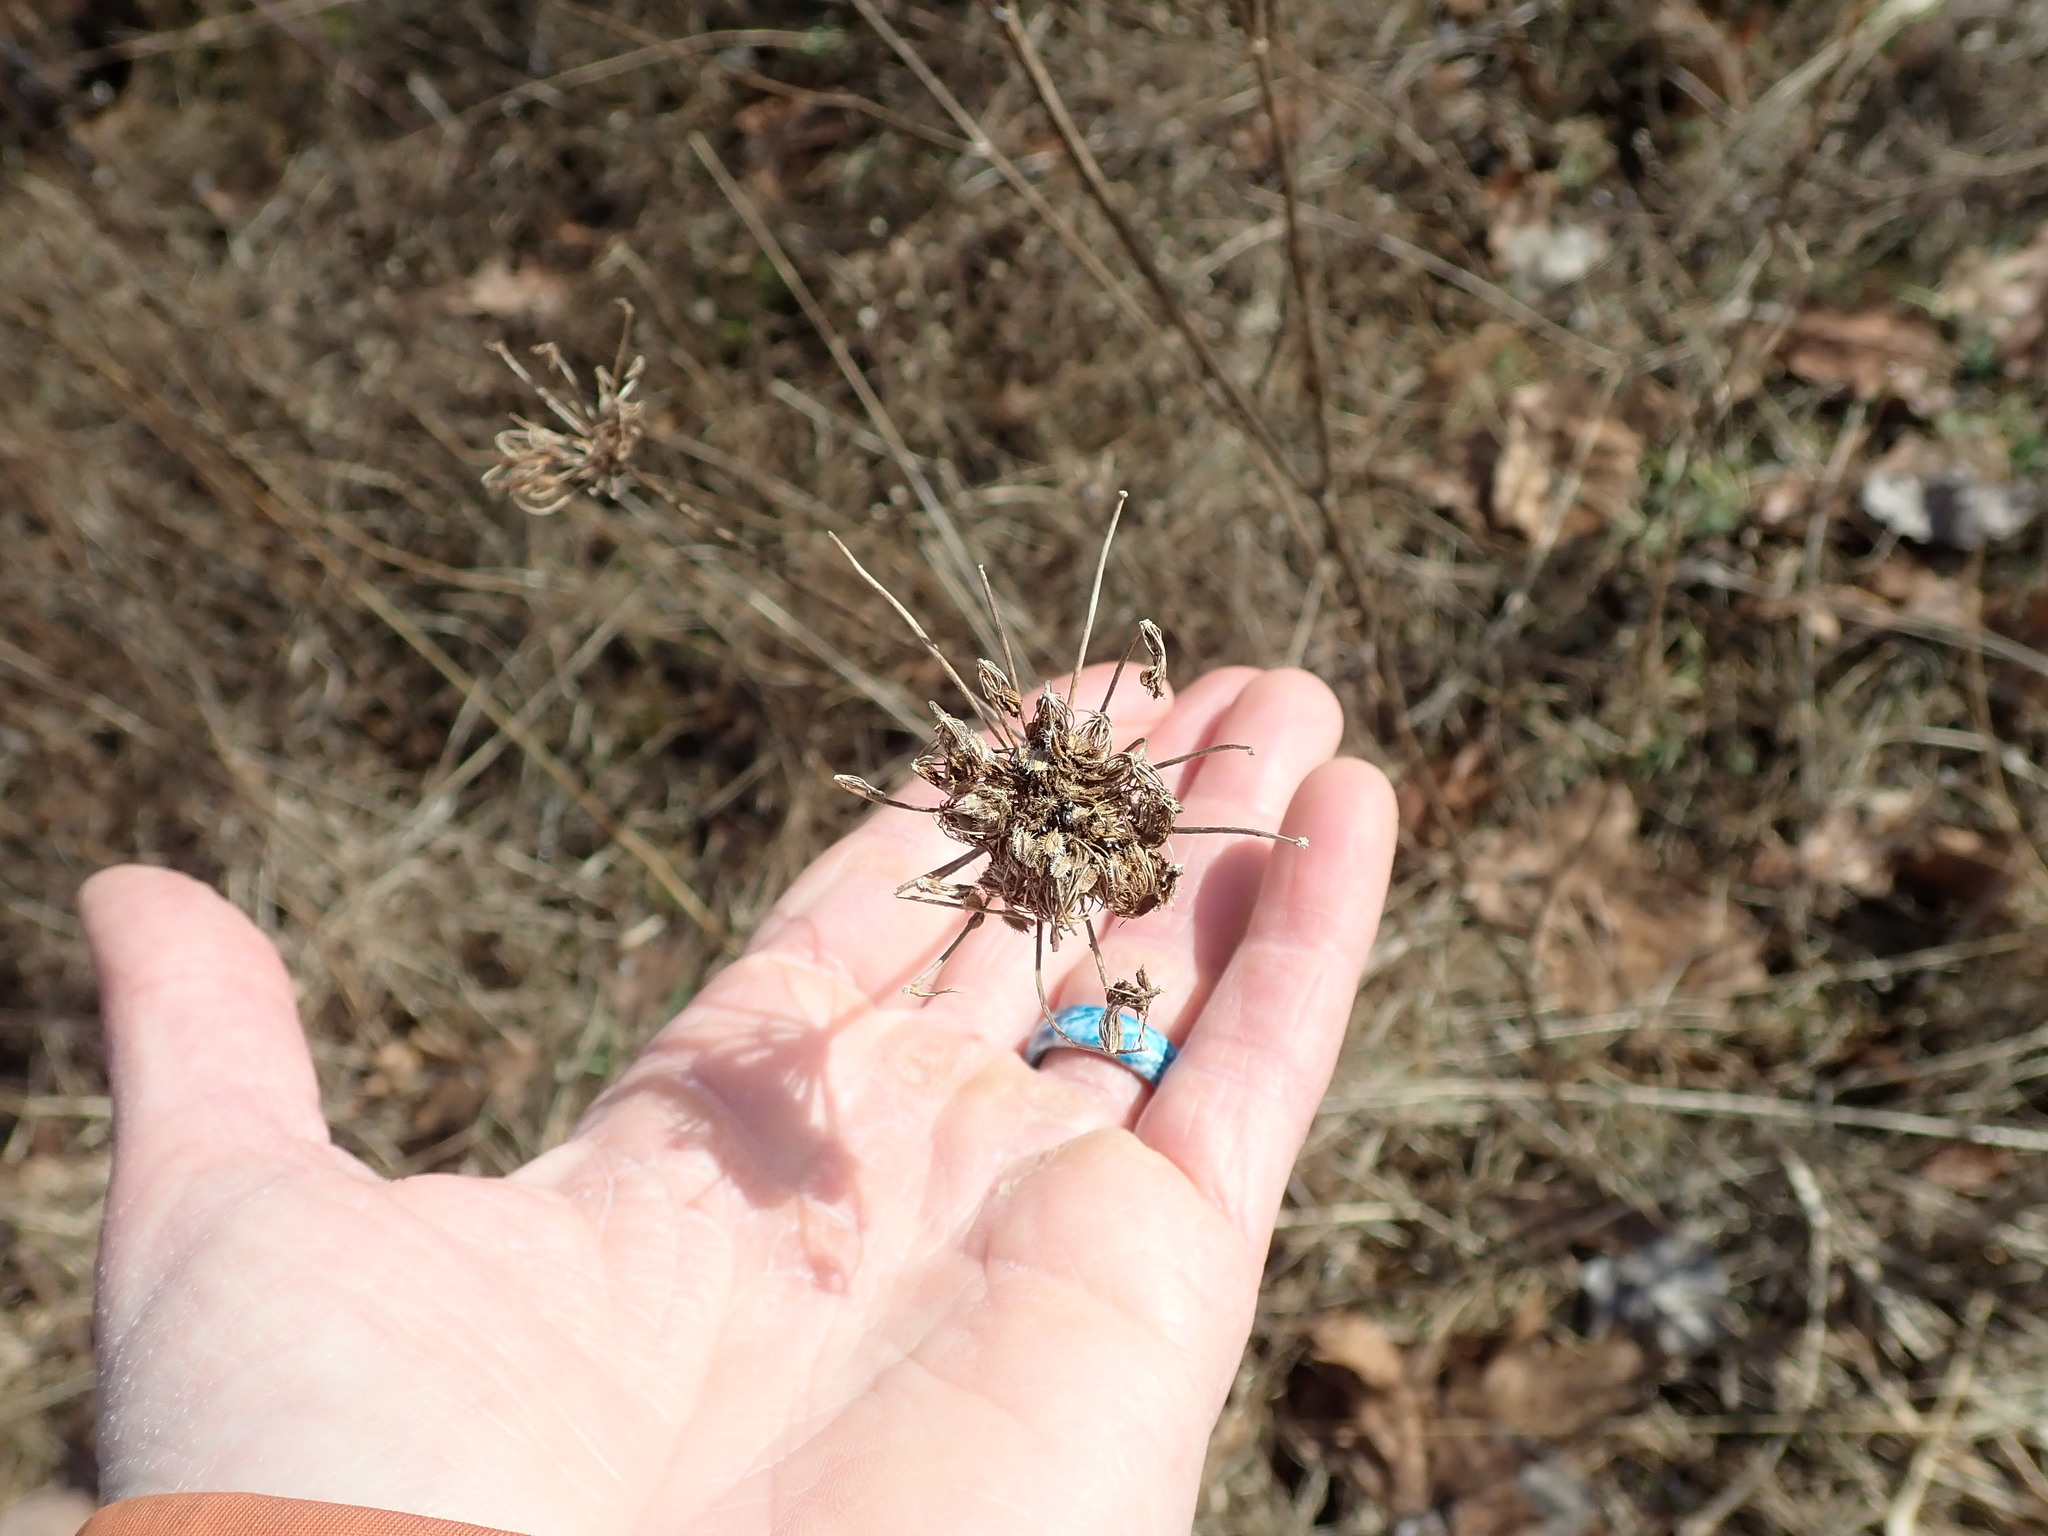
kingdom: Plantae
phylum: Tracheophyta
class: Magnoliopsida
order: Apiales
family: Apiaceae
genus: Daucus
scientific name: Daucus carota
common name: Wild carrot
